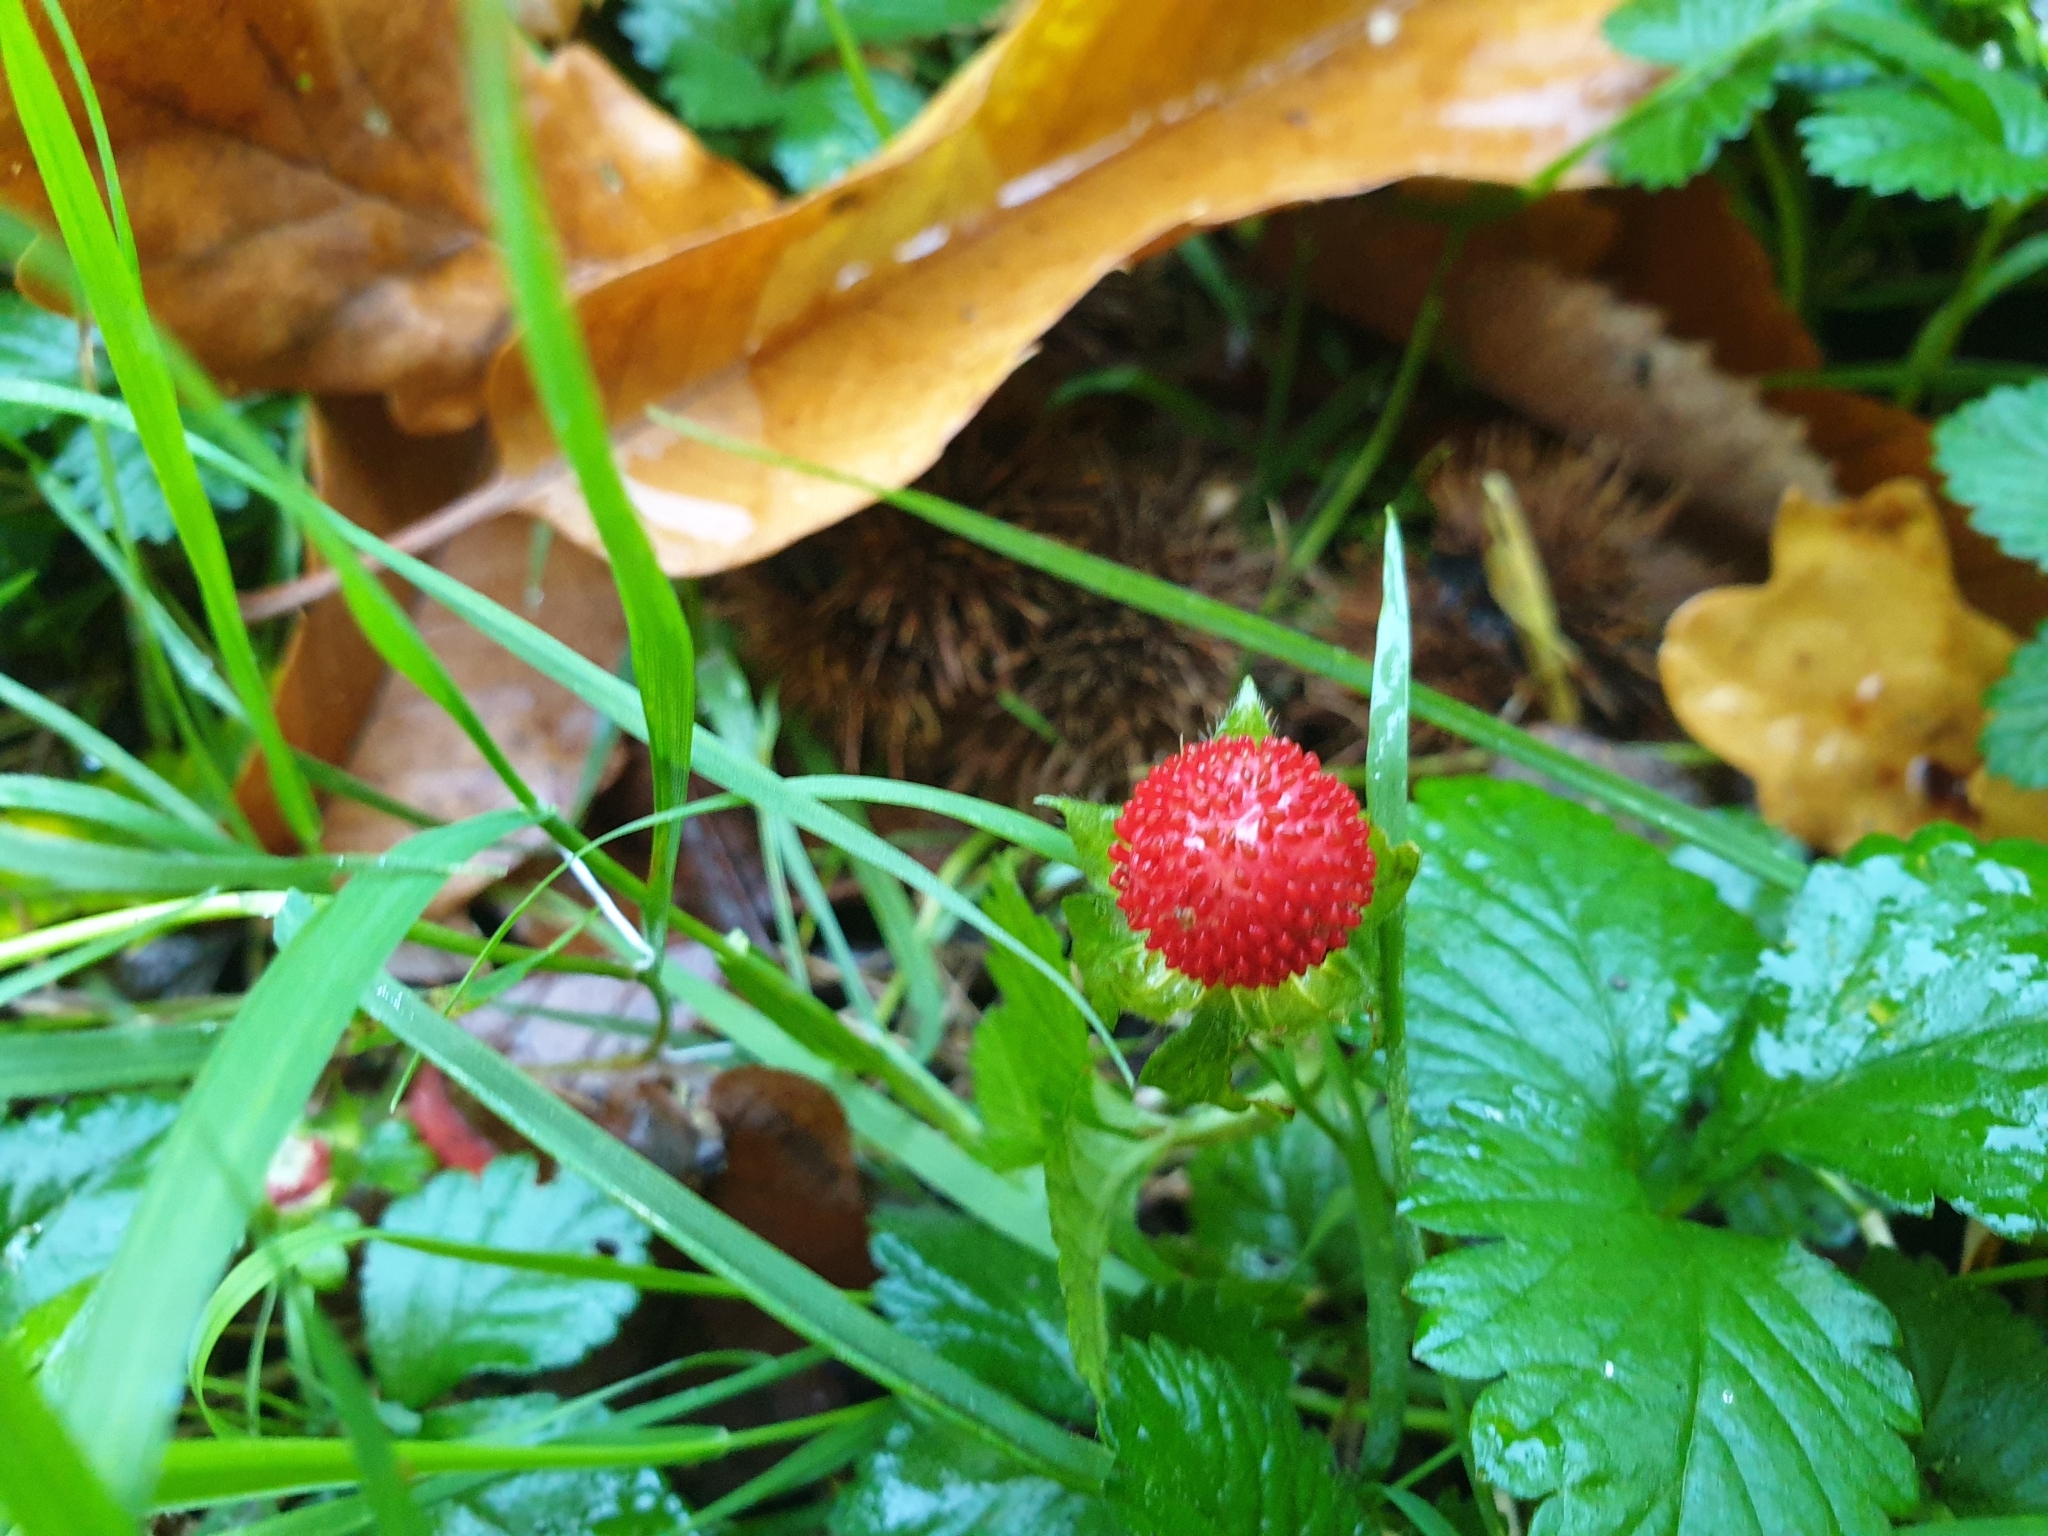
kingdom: Plantae
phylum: Tracheophyta
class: Magnoliopsida
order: Rosales
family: Rosaceae
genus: Potentilla
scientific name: Potentilla indica
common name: Yellow-flowered strawberry
